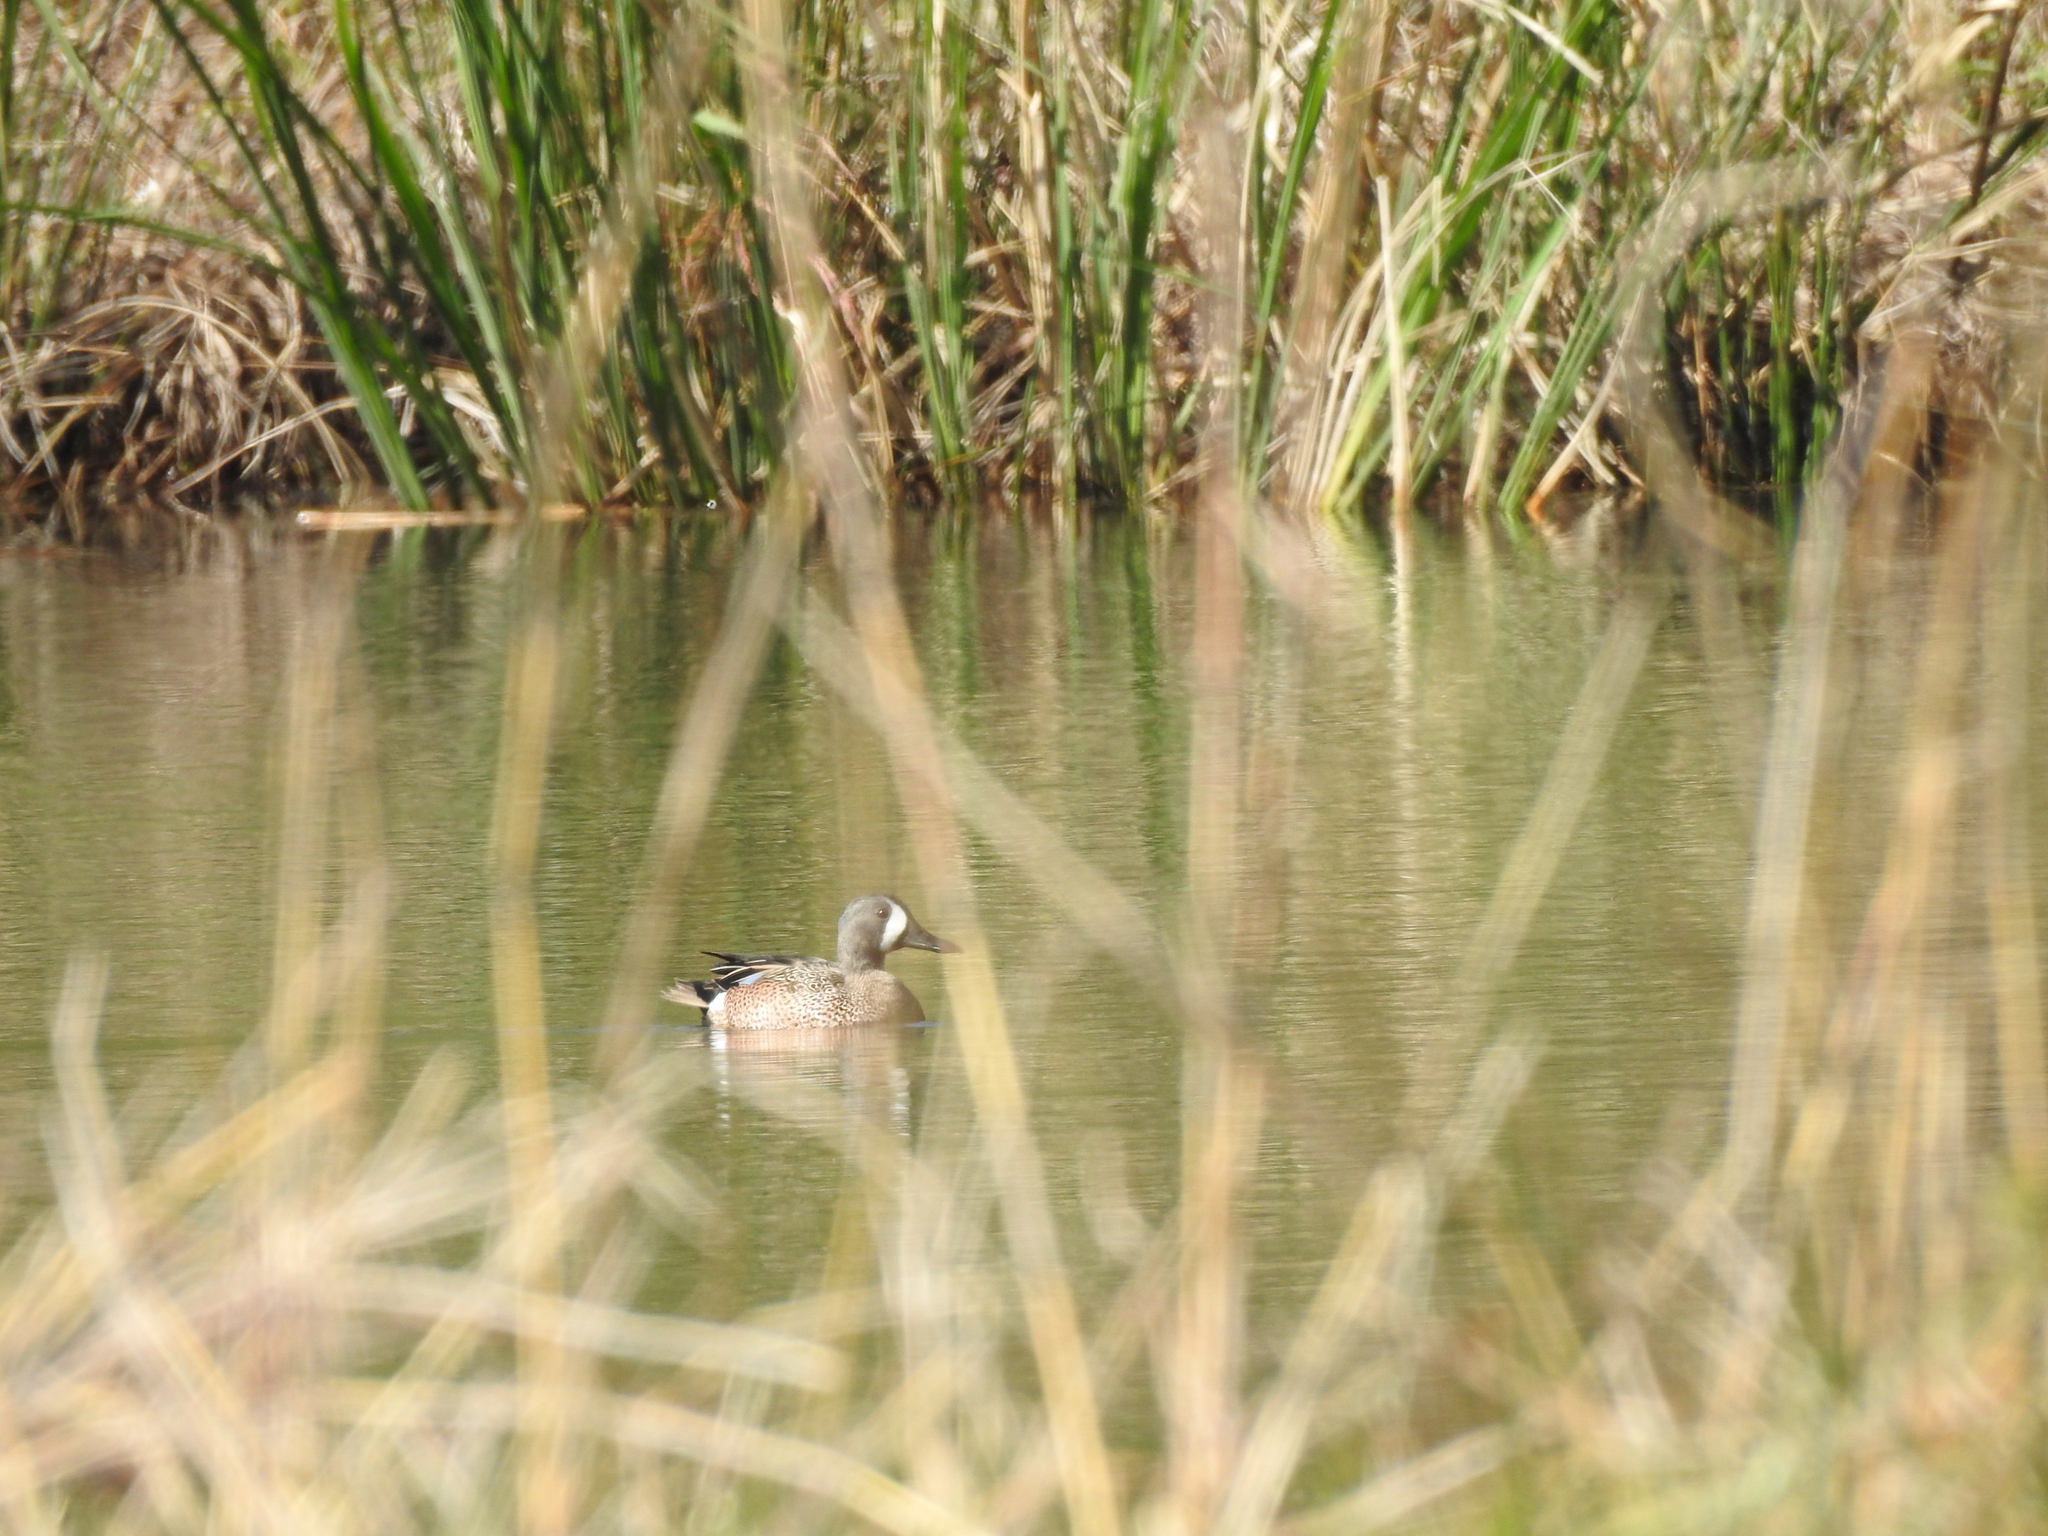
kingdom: Animalia
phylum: Chordata
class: Aves
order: Anseriformes
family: Anatidae
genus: Spatula
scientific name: Spatula discors
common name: Blue-winged teal
